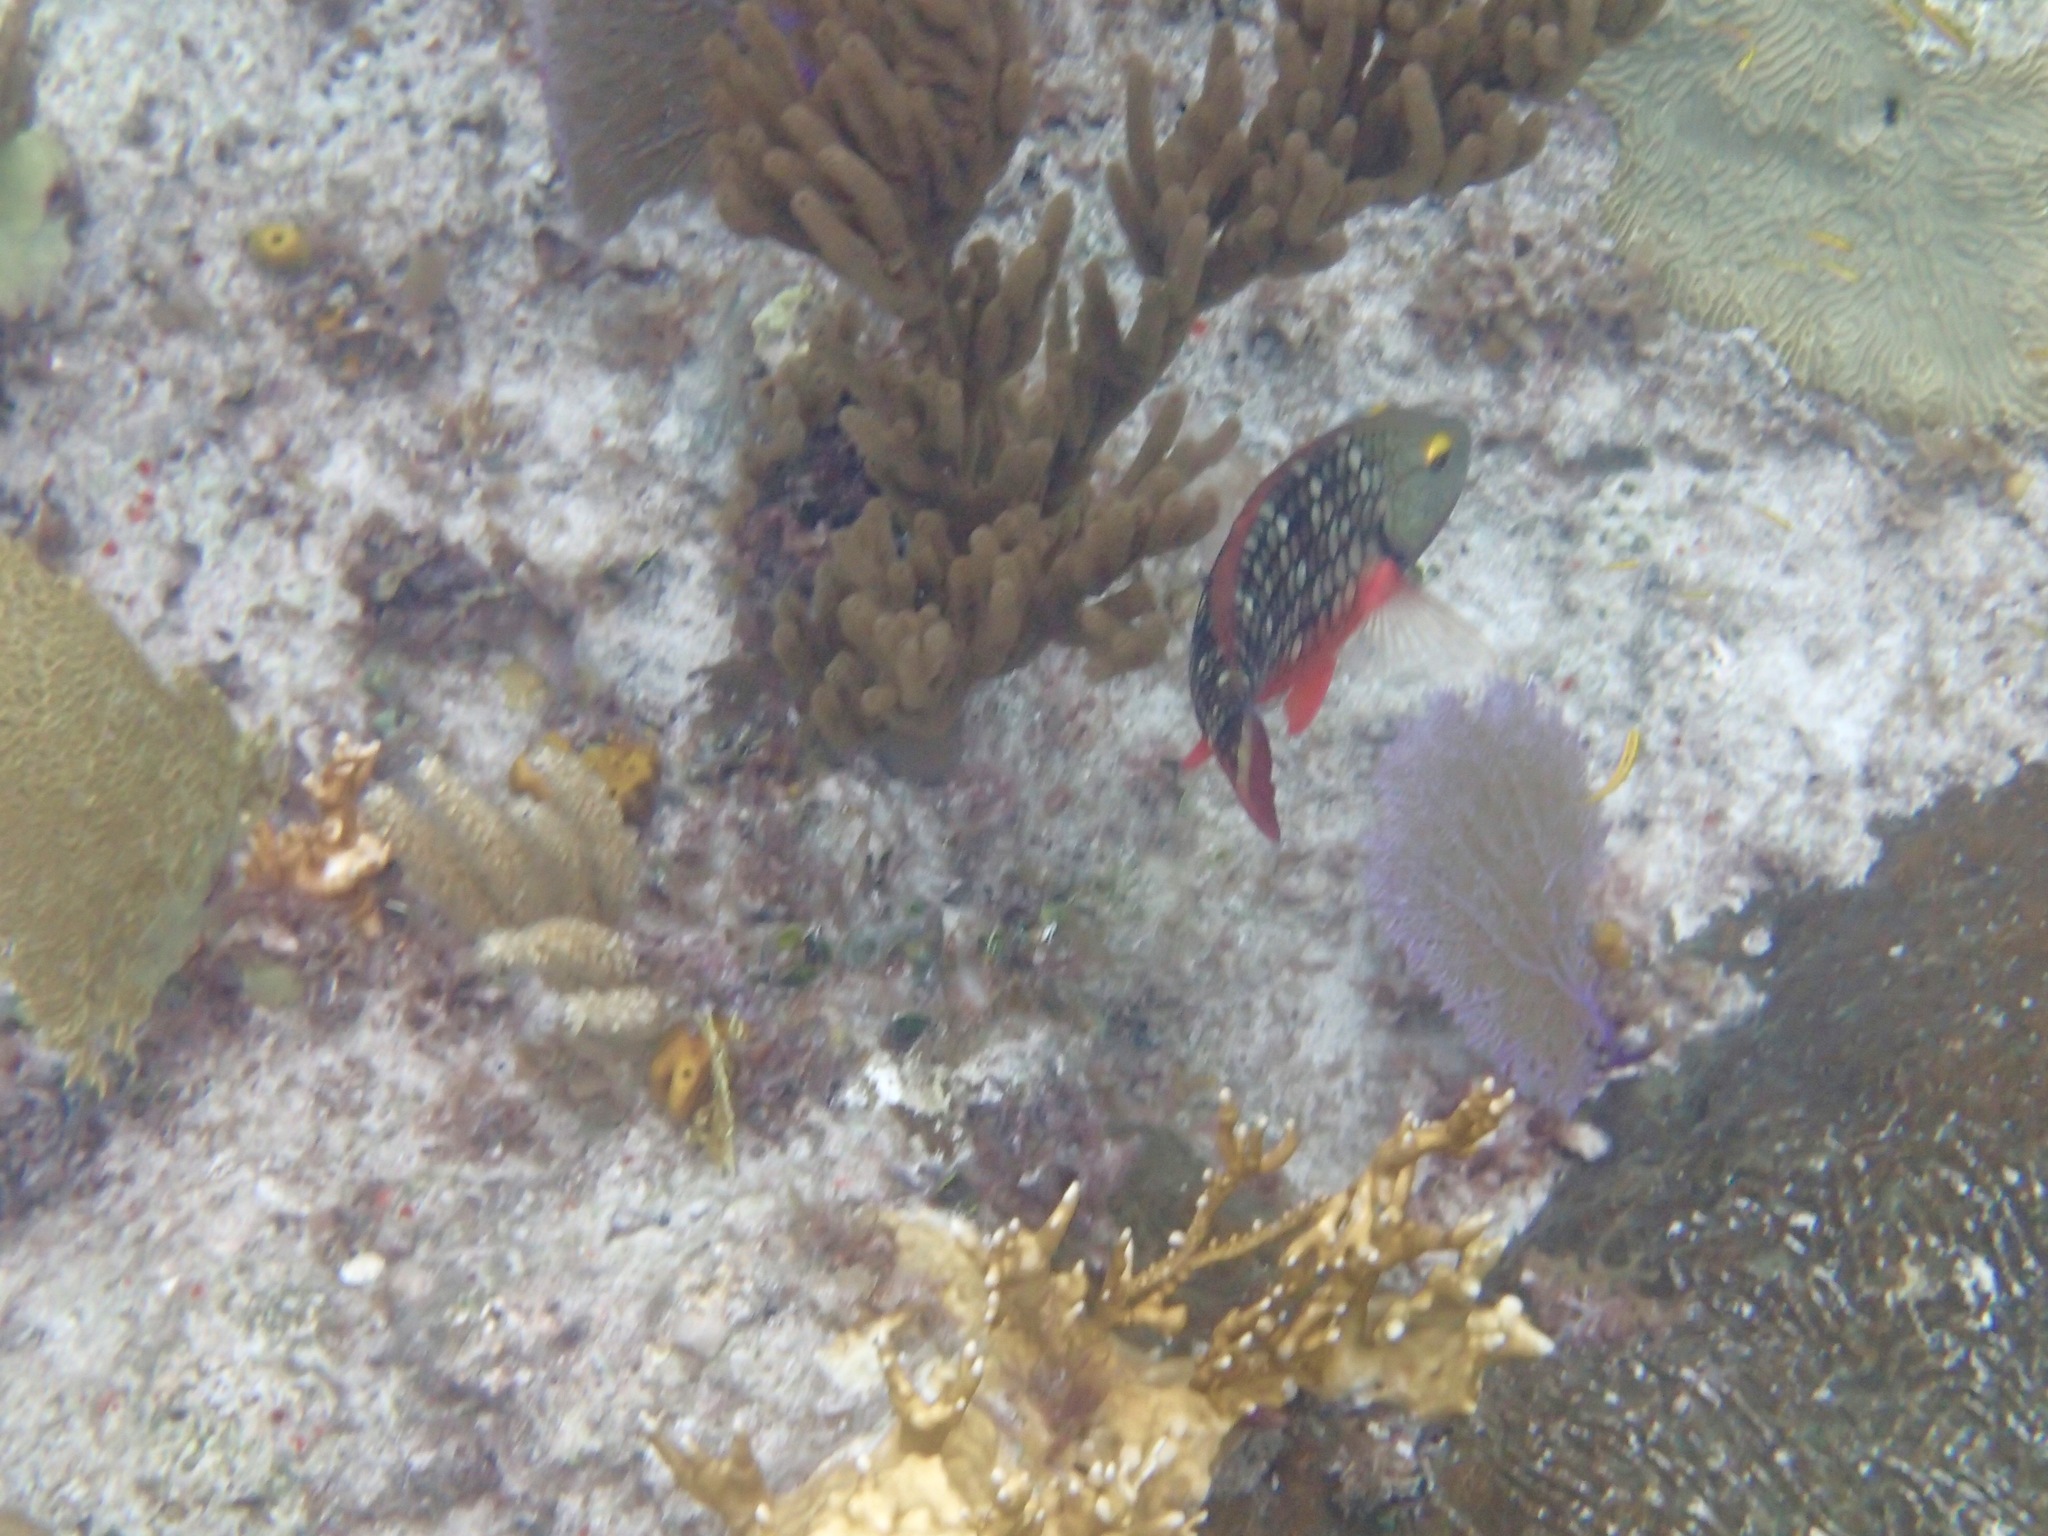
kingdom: Animalia
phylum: Chordata
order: Perciformes
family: Scaridae
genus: Sparisoma
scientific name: Sparisoma viride
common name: Stoplight parrotfish
